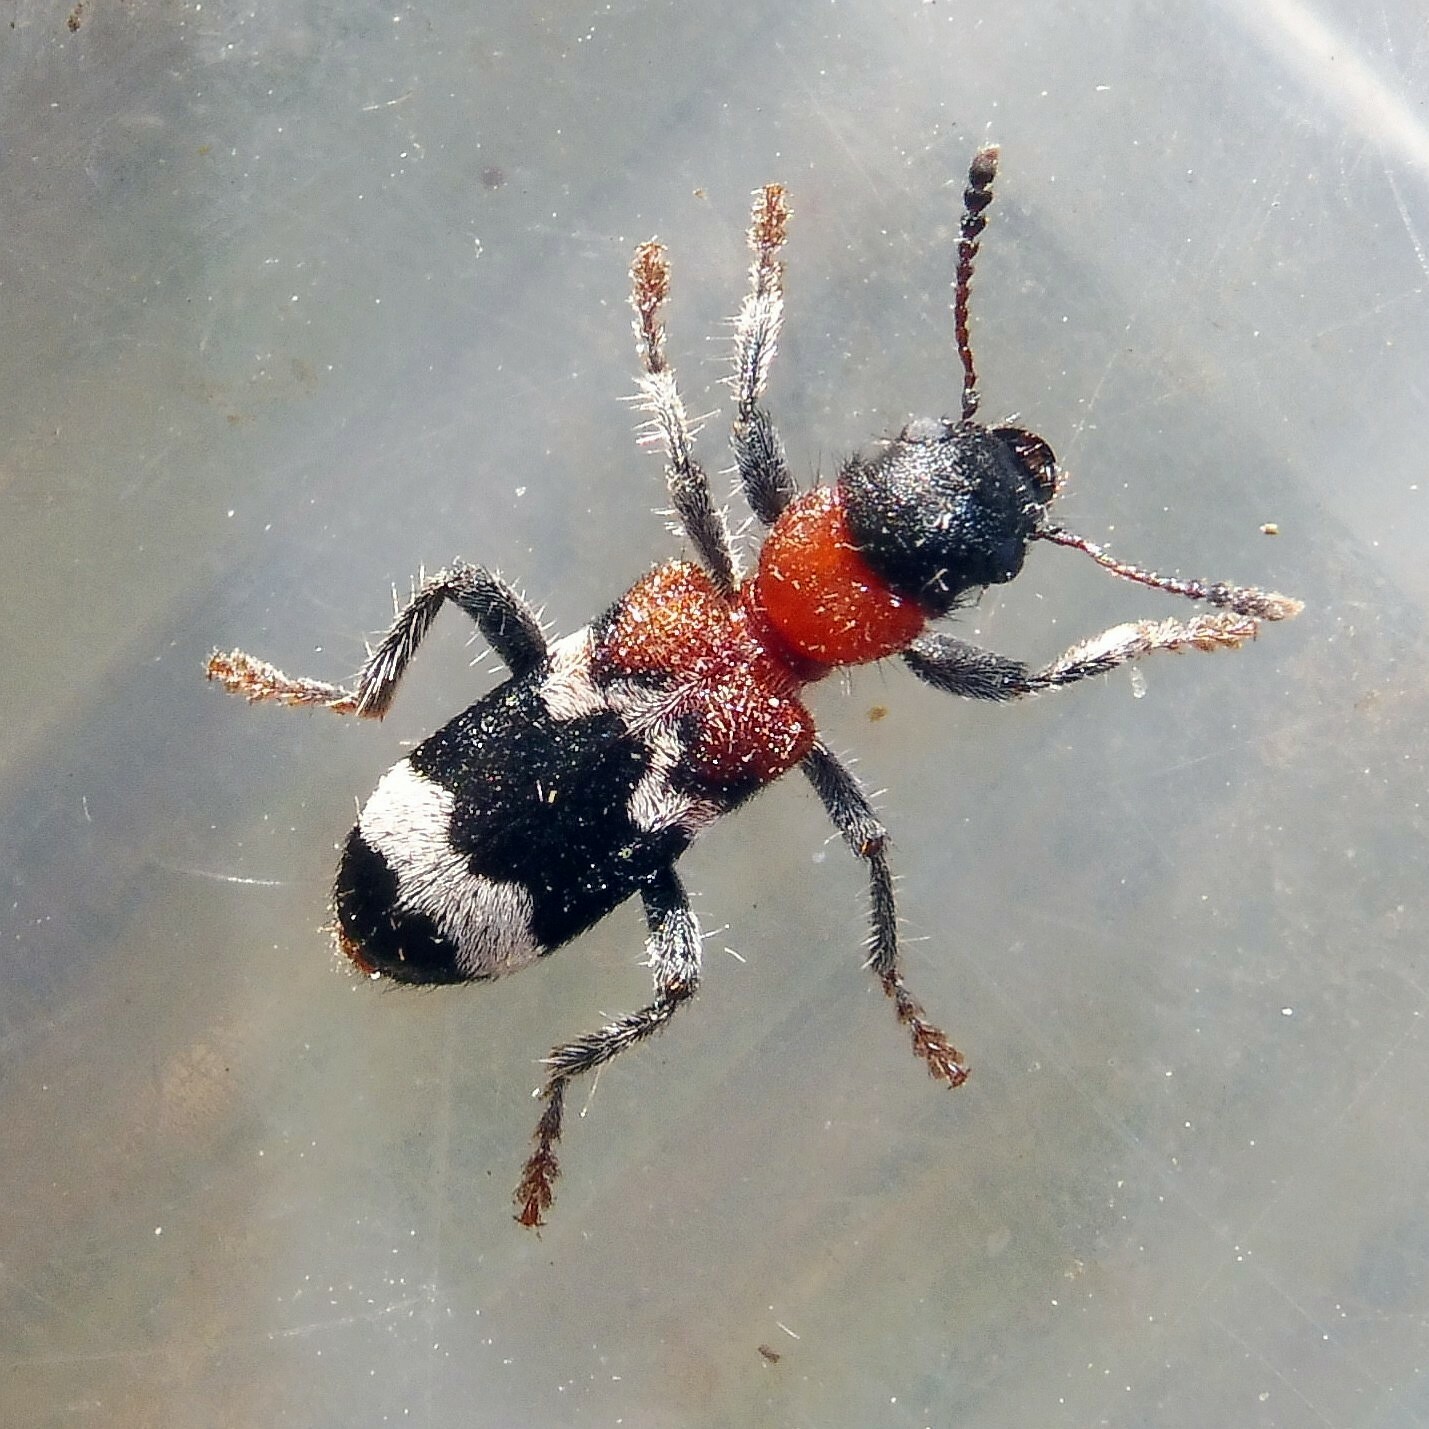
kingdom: Animalia
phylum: Arthropoda
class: Insecta
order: Coleoptera
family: Cleridae
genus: Thanasimus
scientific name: Thanasimus formicarius
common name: Ant beetle
